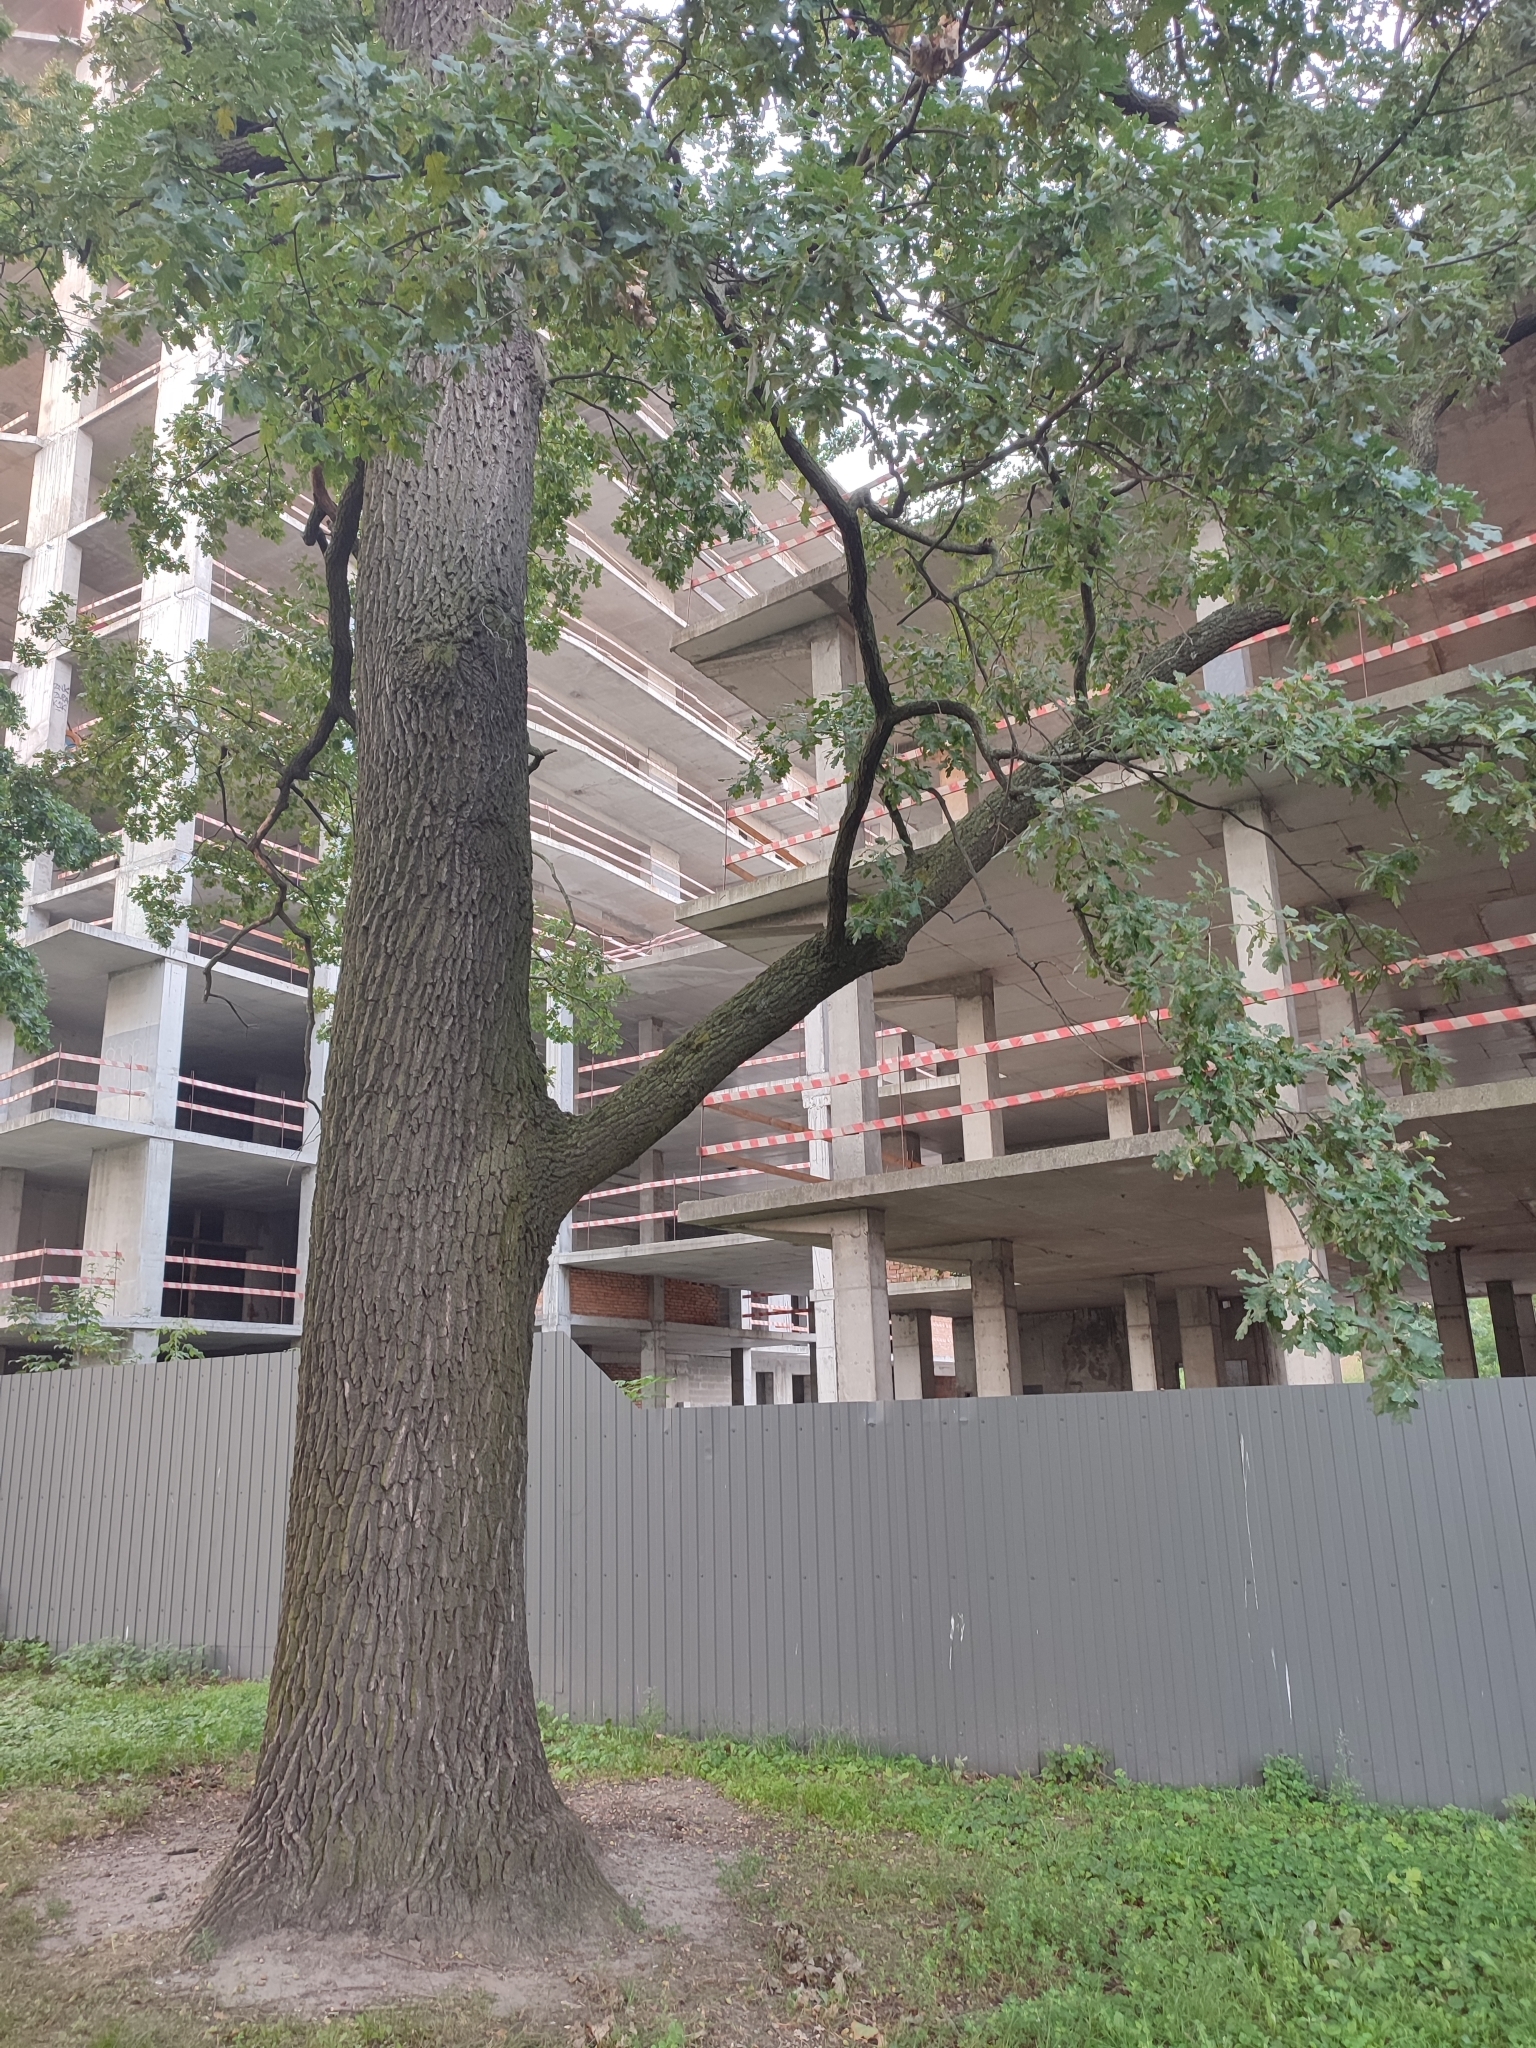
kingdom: Plantae
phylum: Tracheophyta
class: Magnoliopsida
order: Fagales
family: Fagaceae
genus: Quercus
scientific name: Quercus robur
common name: Pedunculate oak
